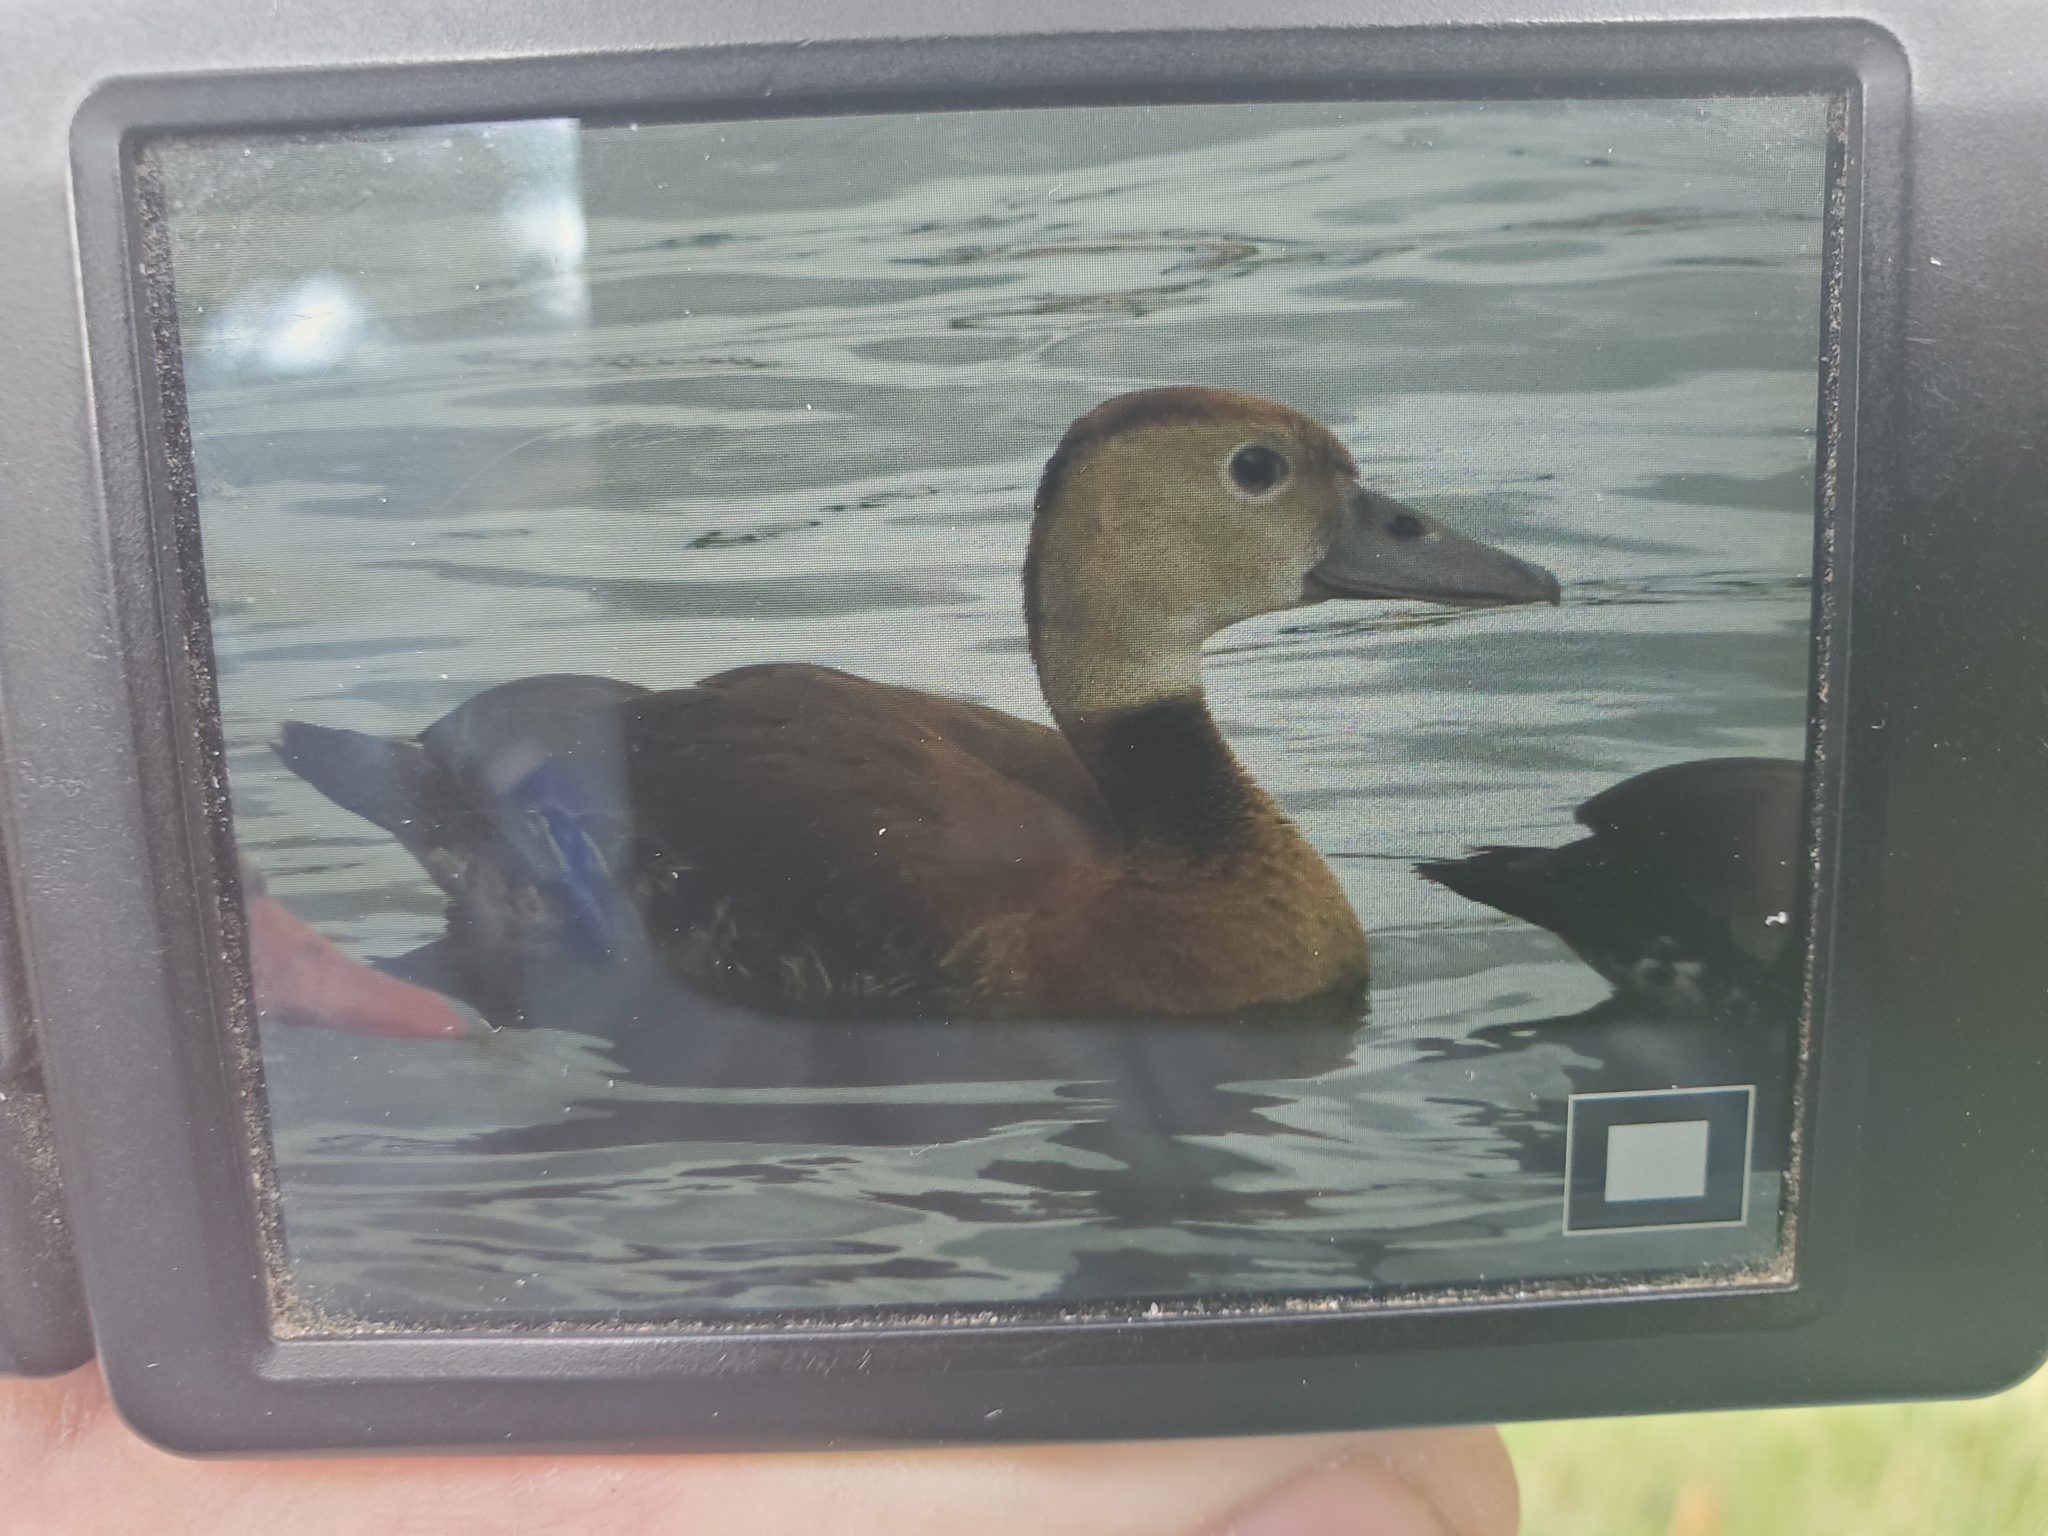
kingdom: Animalia
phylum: Chordata
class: Aves
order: Anseriformes
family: Anatidae
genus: Dendrocygna
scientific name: Dendrocygna autumnalis
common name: Black-bellied whistling duck
